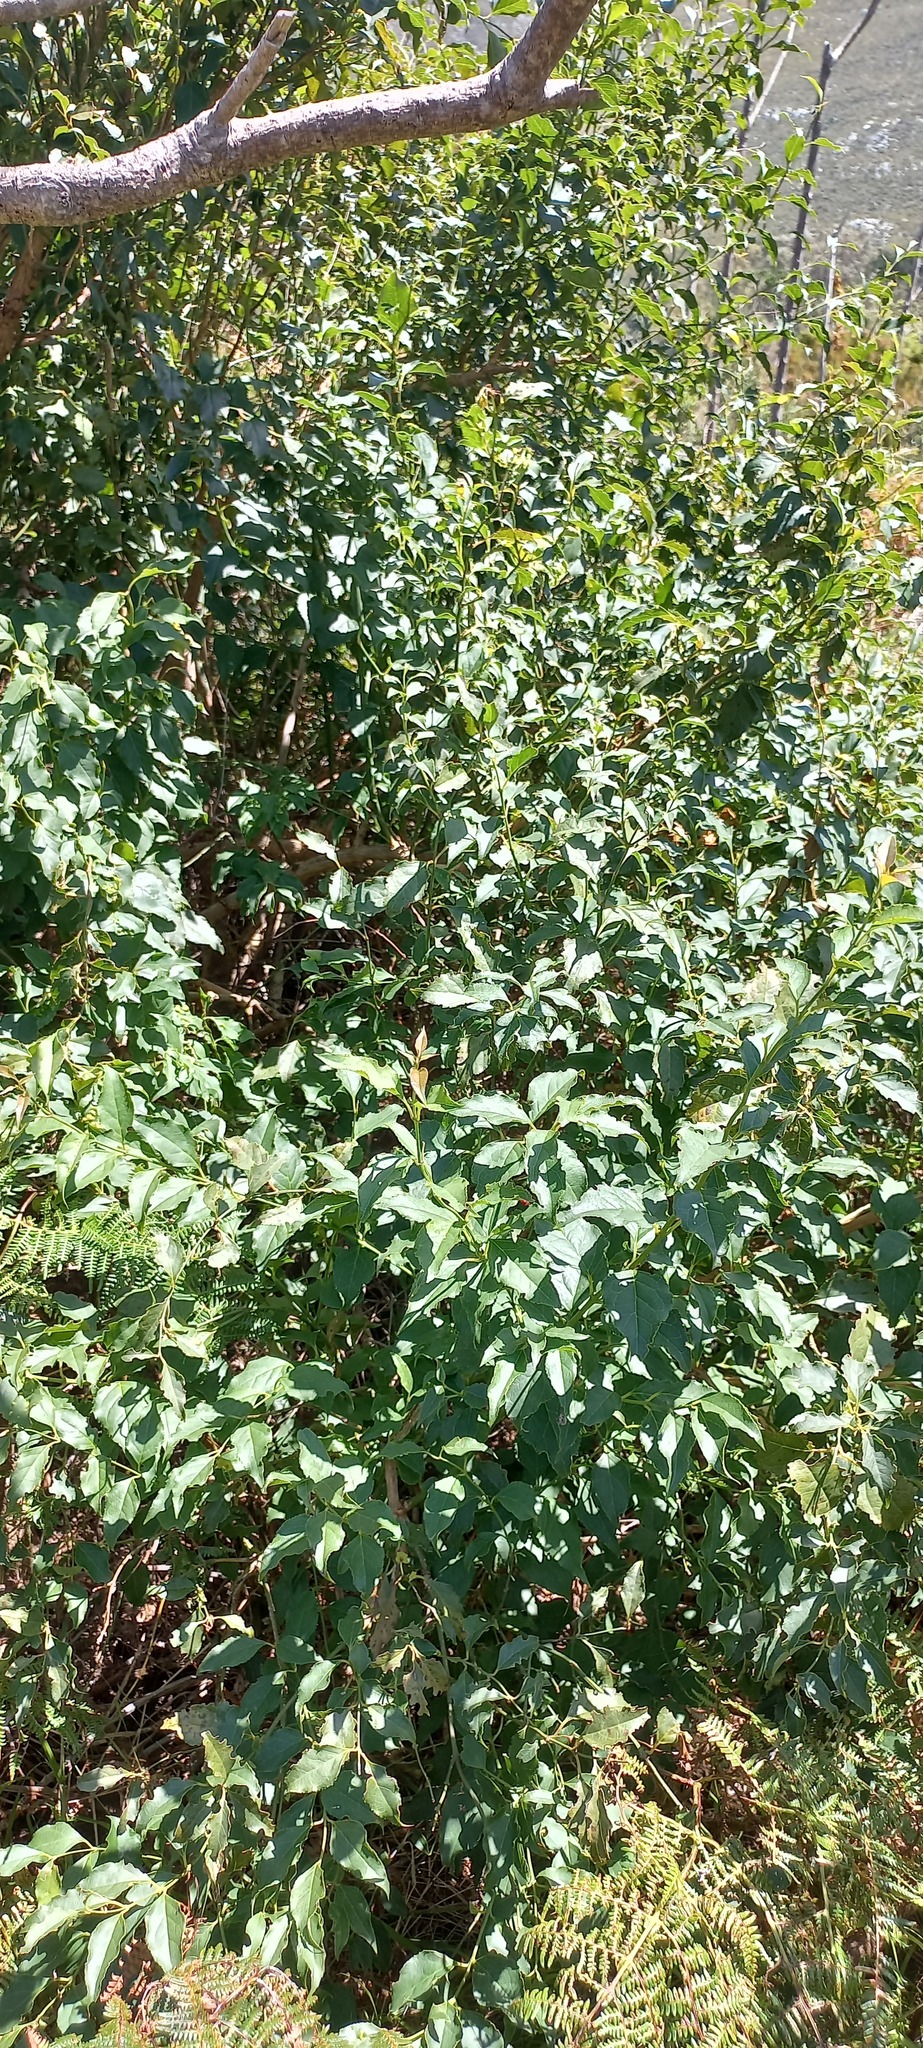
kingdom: Plantae
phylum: Tracheophyta
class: Magnoliopsida
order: Lamiales
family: Stilbaceae
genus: Halleria
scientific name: Halleria lucida
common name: Tree fuschia
